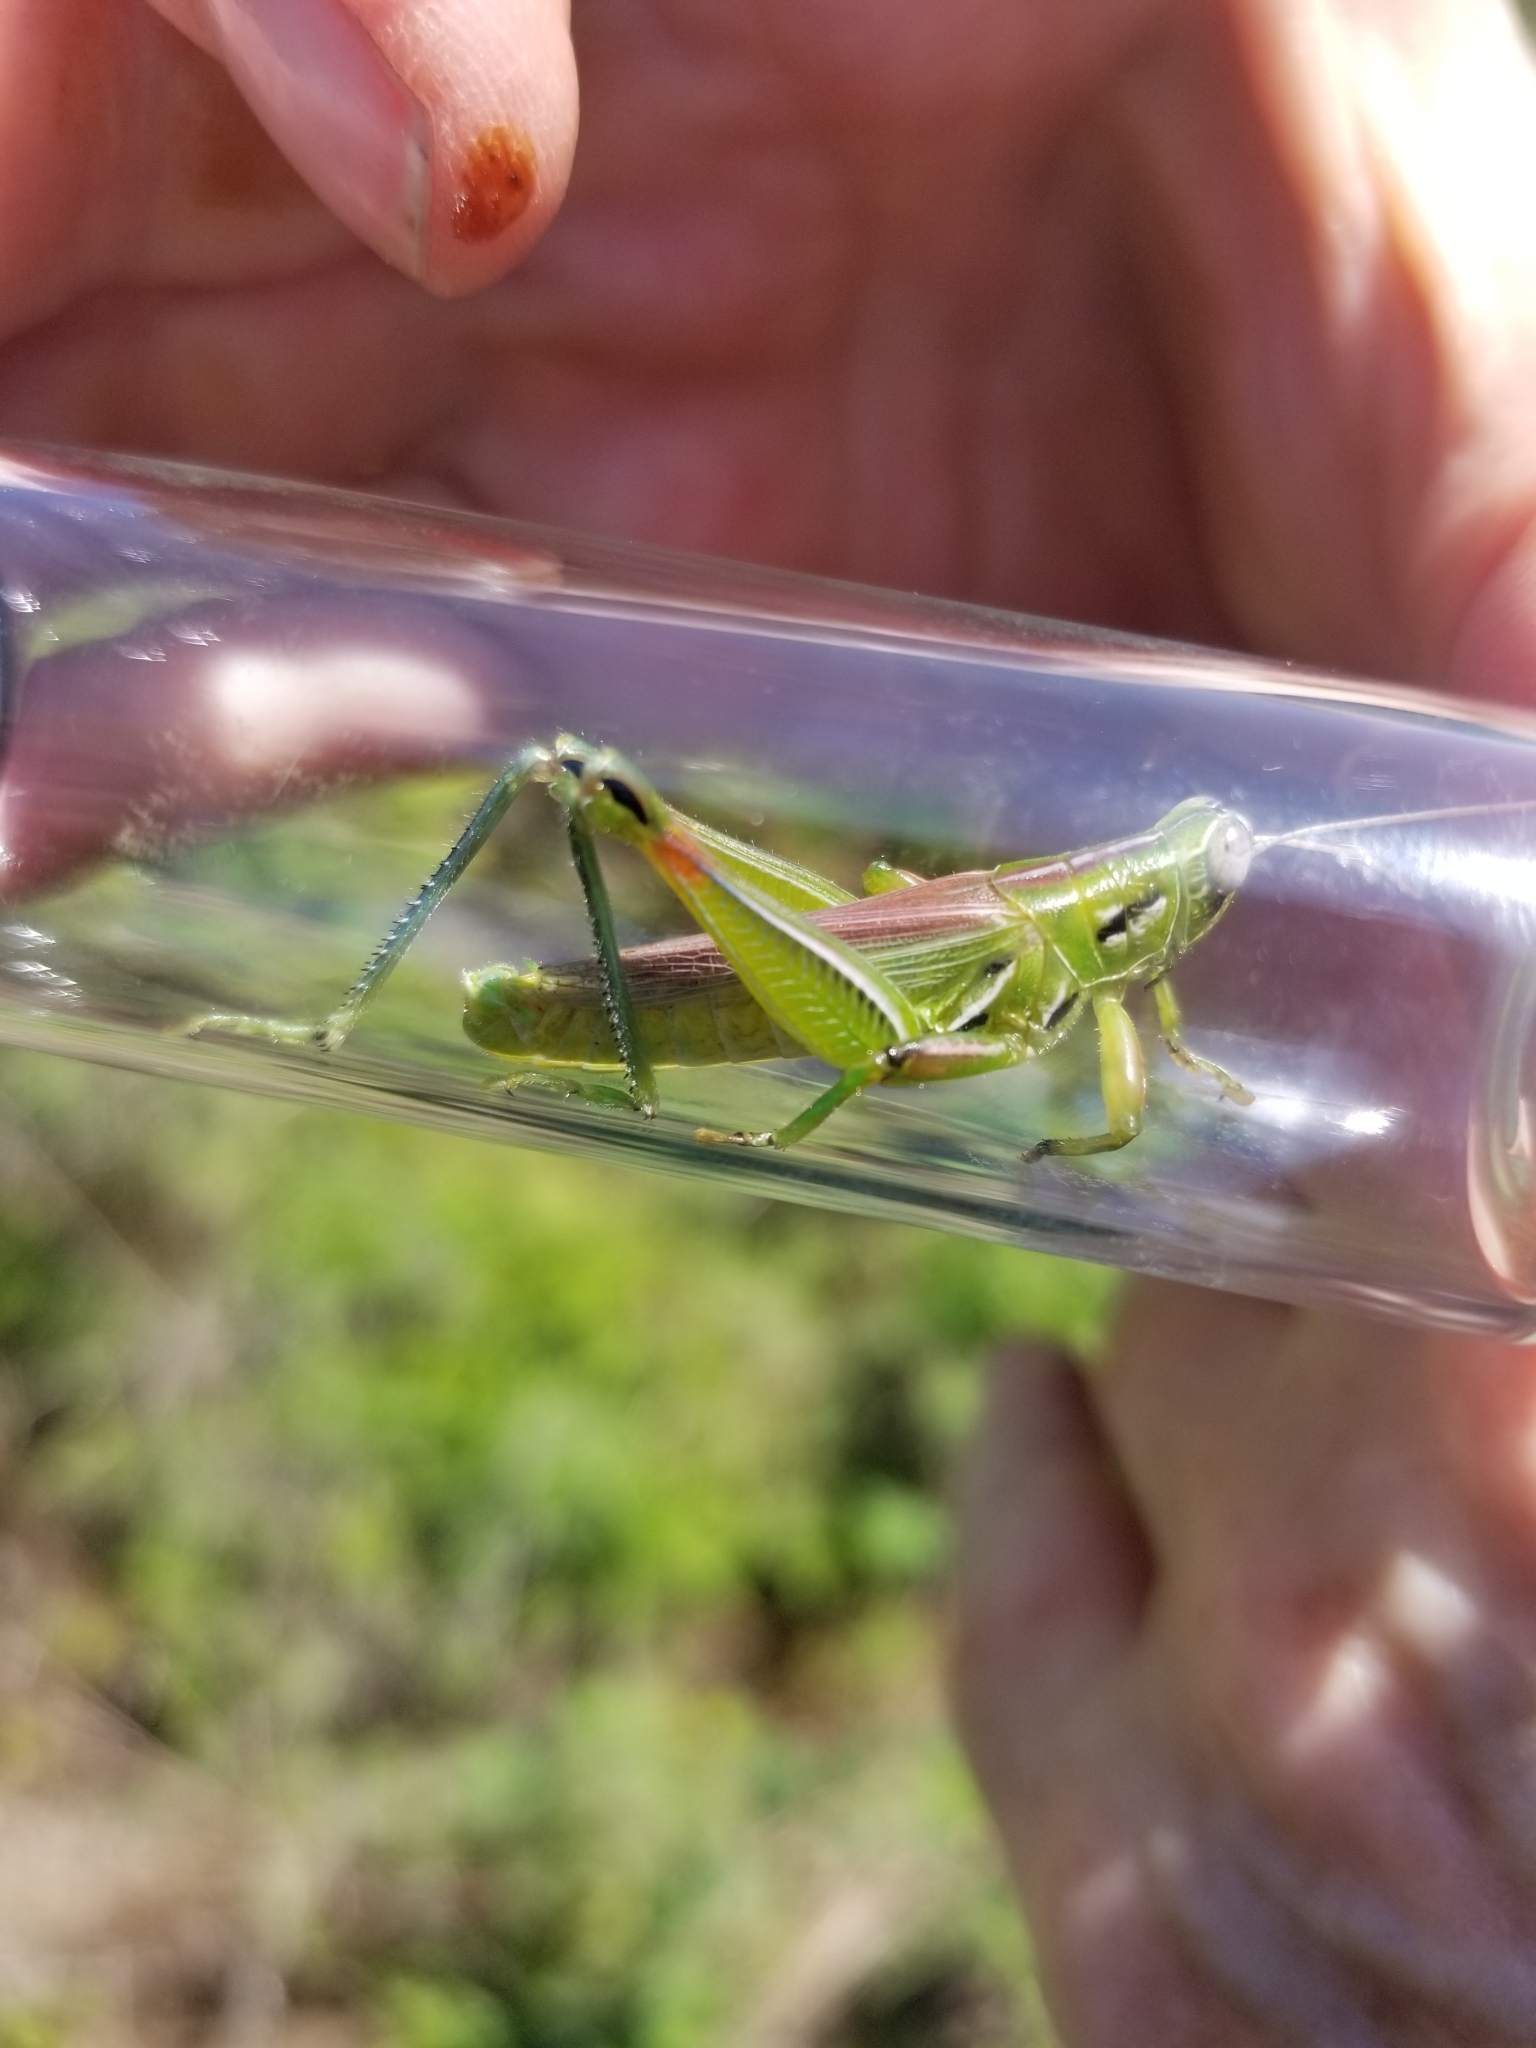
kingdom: Animalia
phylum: Arthropoda
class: Insecta
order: Orthoptera
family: Acrididae
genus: Hesperotettix
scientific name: Hesperotettix viridis
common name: Meadow purple-striped grasshopper
